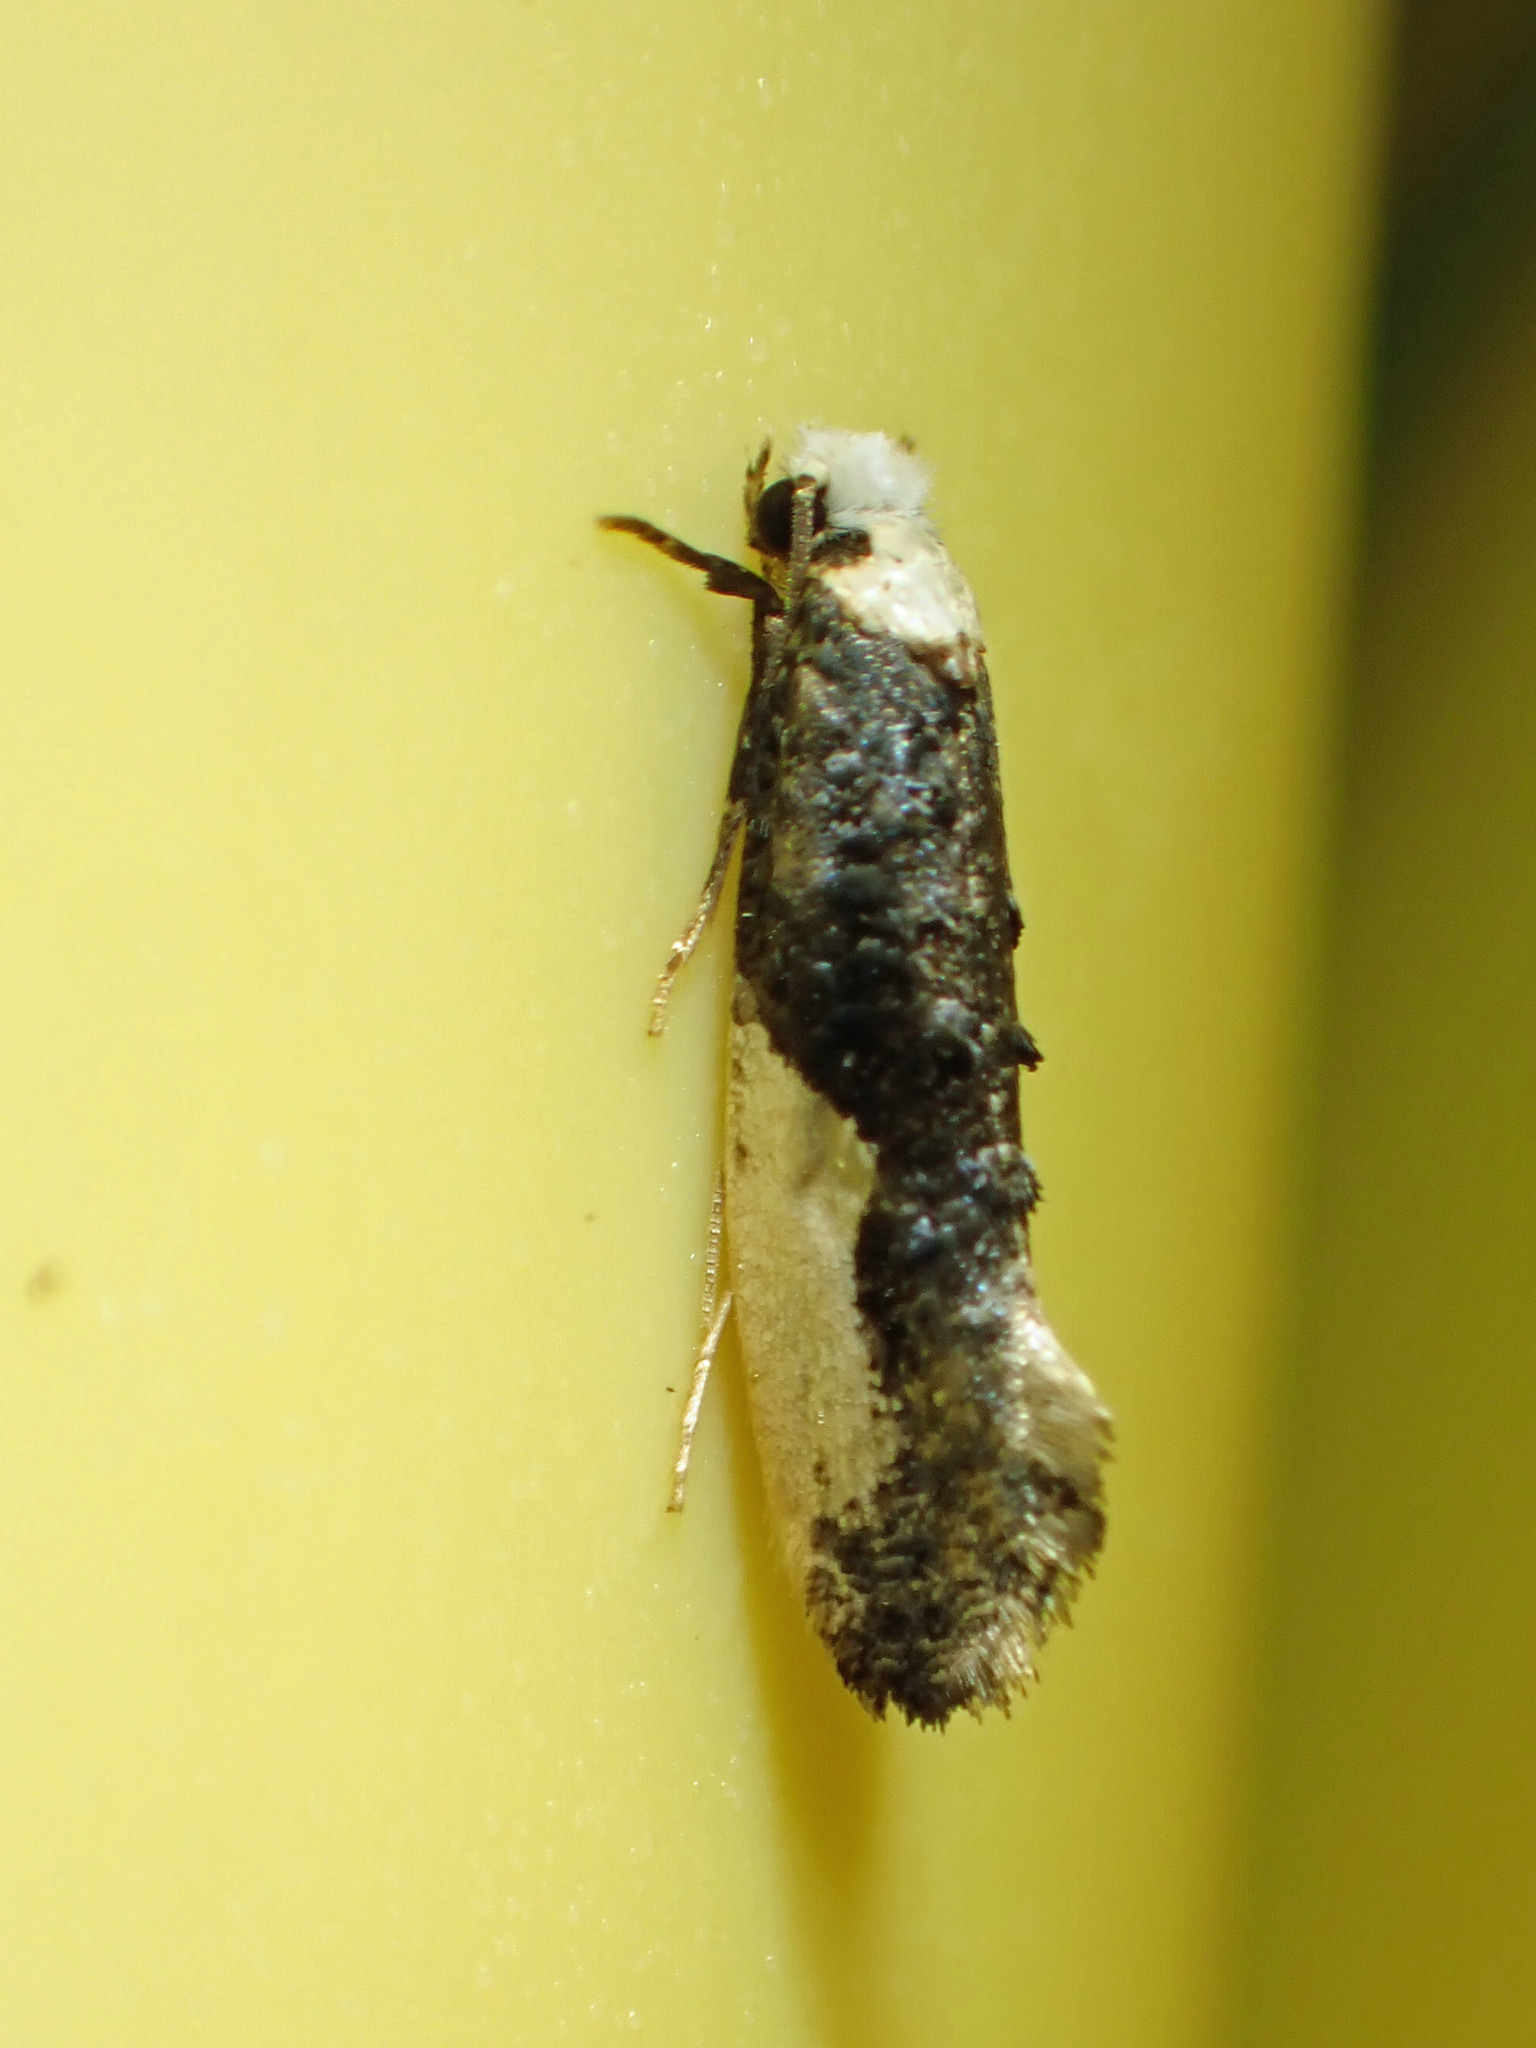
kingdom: Animalia
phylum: Arthropoda
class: Insecta
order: Lepidoptera
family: Tineidae
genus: Monopis
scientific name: Monopis monachella
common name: Moth
